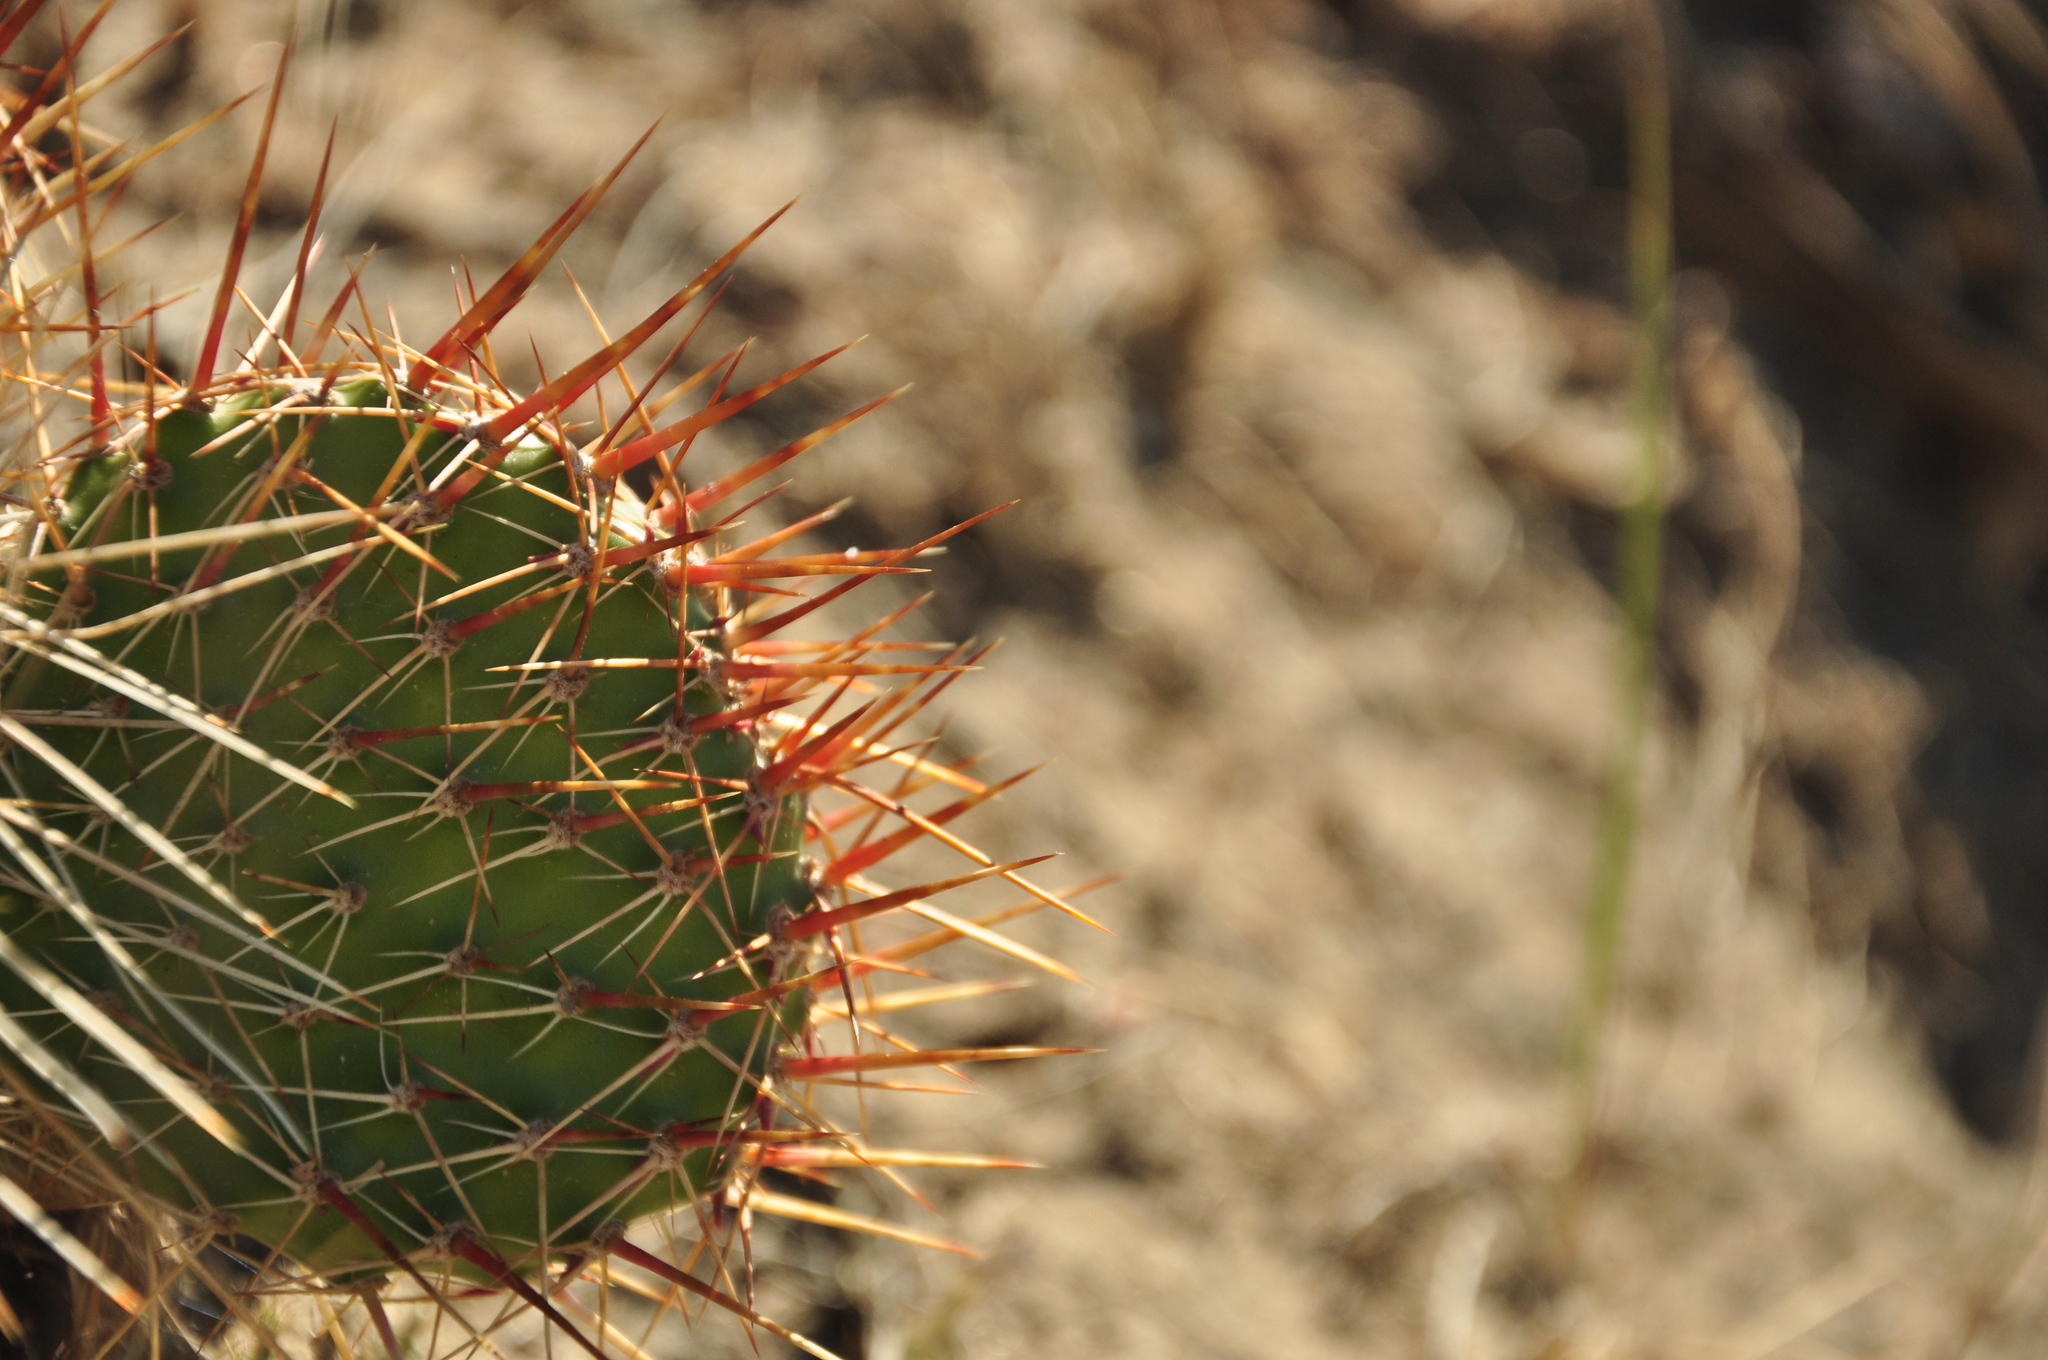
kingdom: Plantae
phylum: Tracheophyta
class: Magnoliopsida
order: Caryophyllales
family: Cactaceae
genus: Opuntia
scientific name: Opuntia polyacantha
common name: Plains prickly-pear
